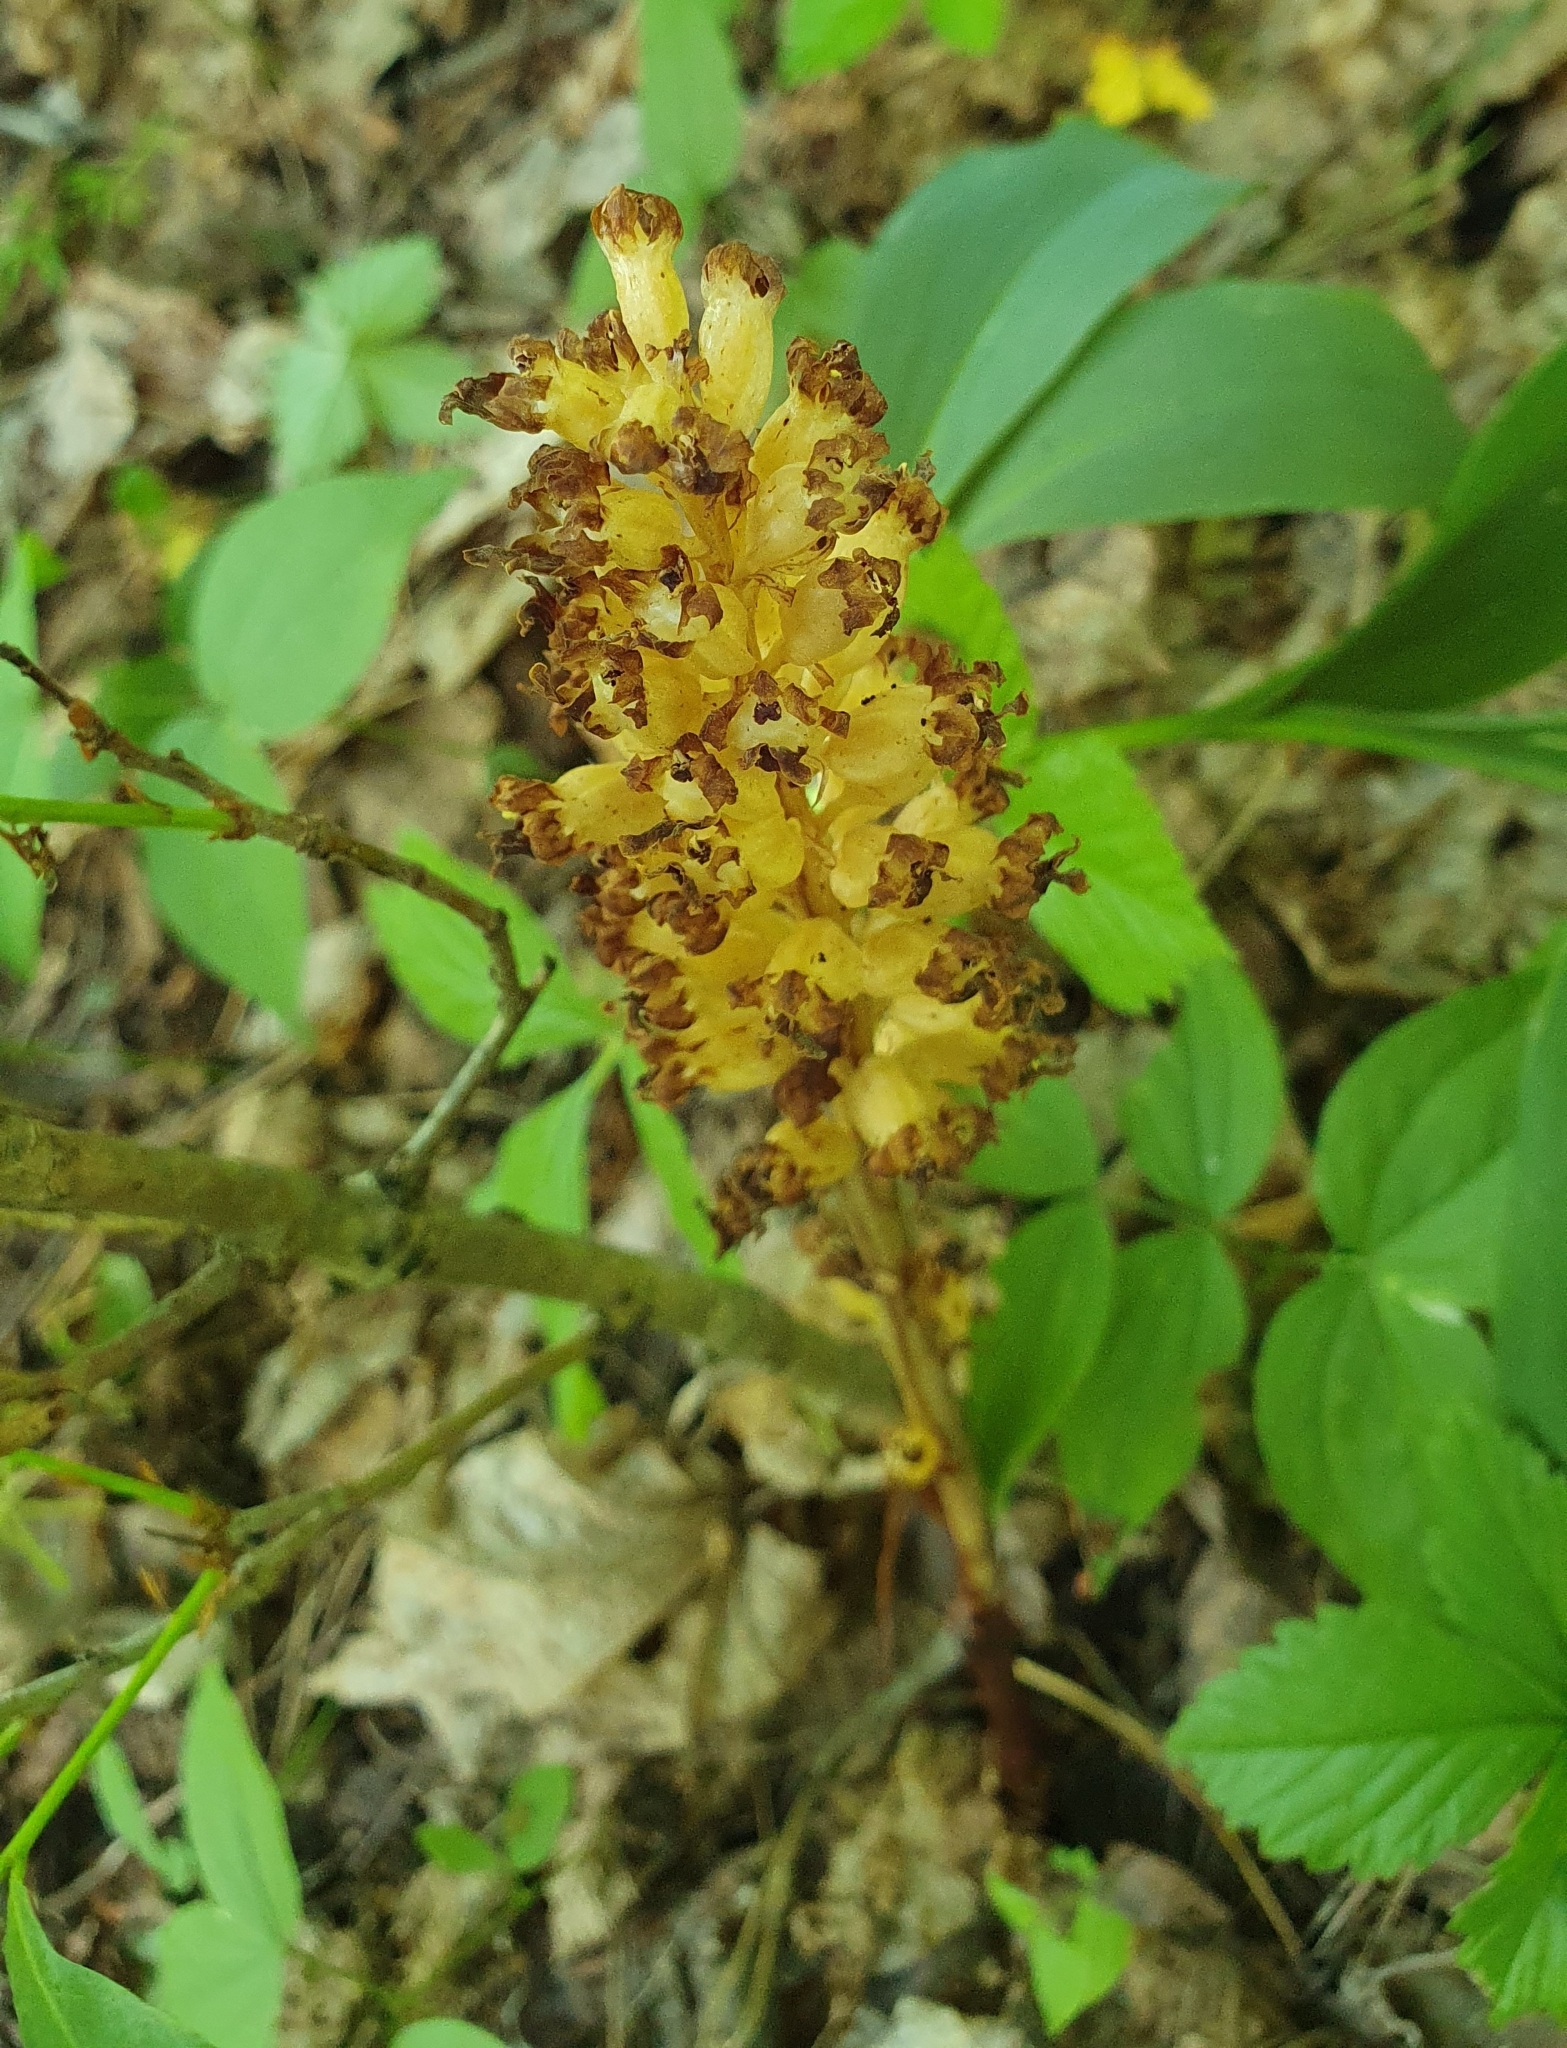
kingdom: Plantae
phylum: Tracheophyta
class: Liliopsida
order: Asparagales
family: Orchidaceae
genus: Neottia
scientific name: Neottia nidus-avis
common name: Bird's-nest orchid
